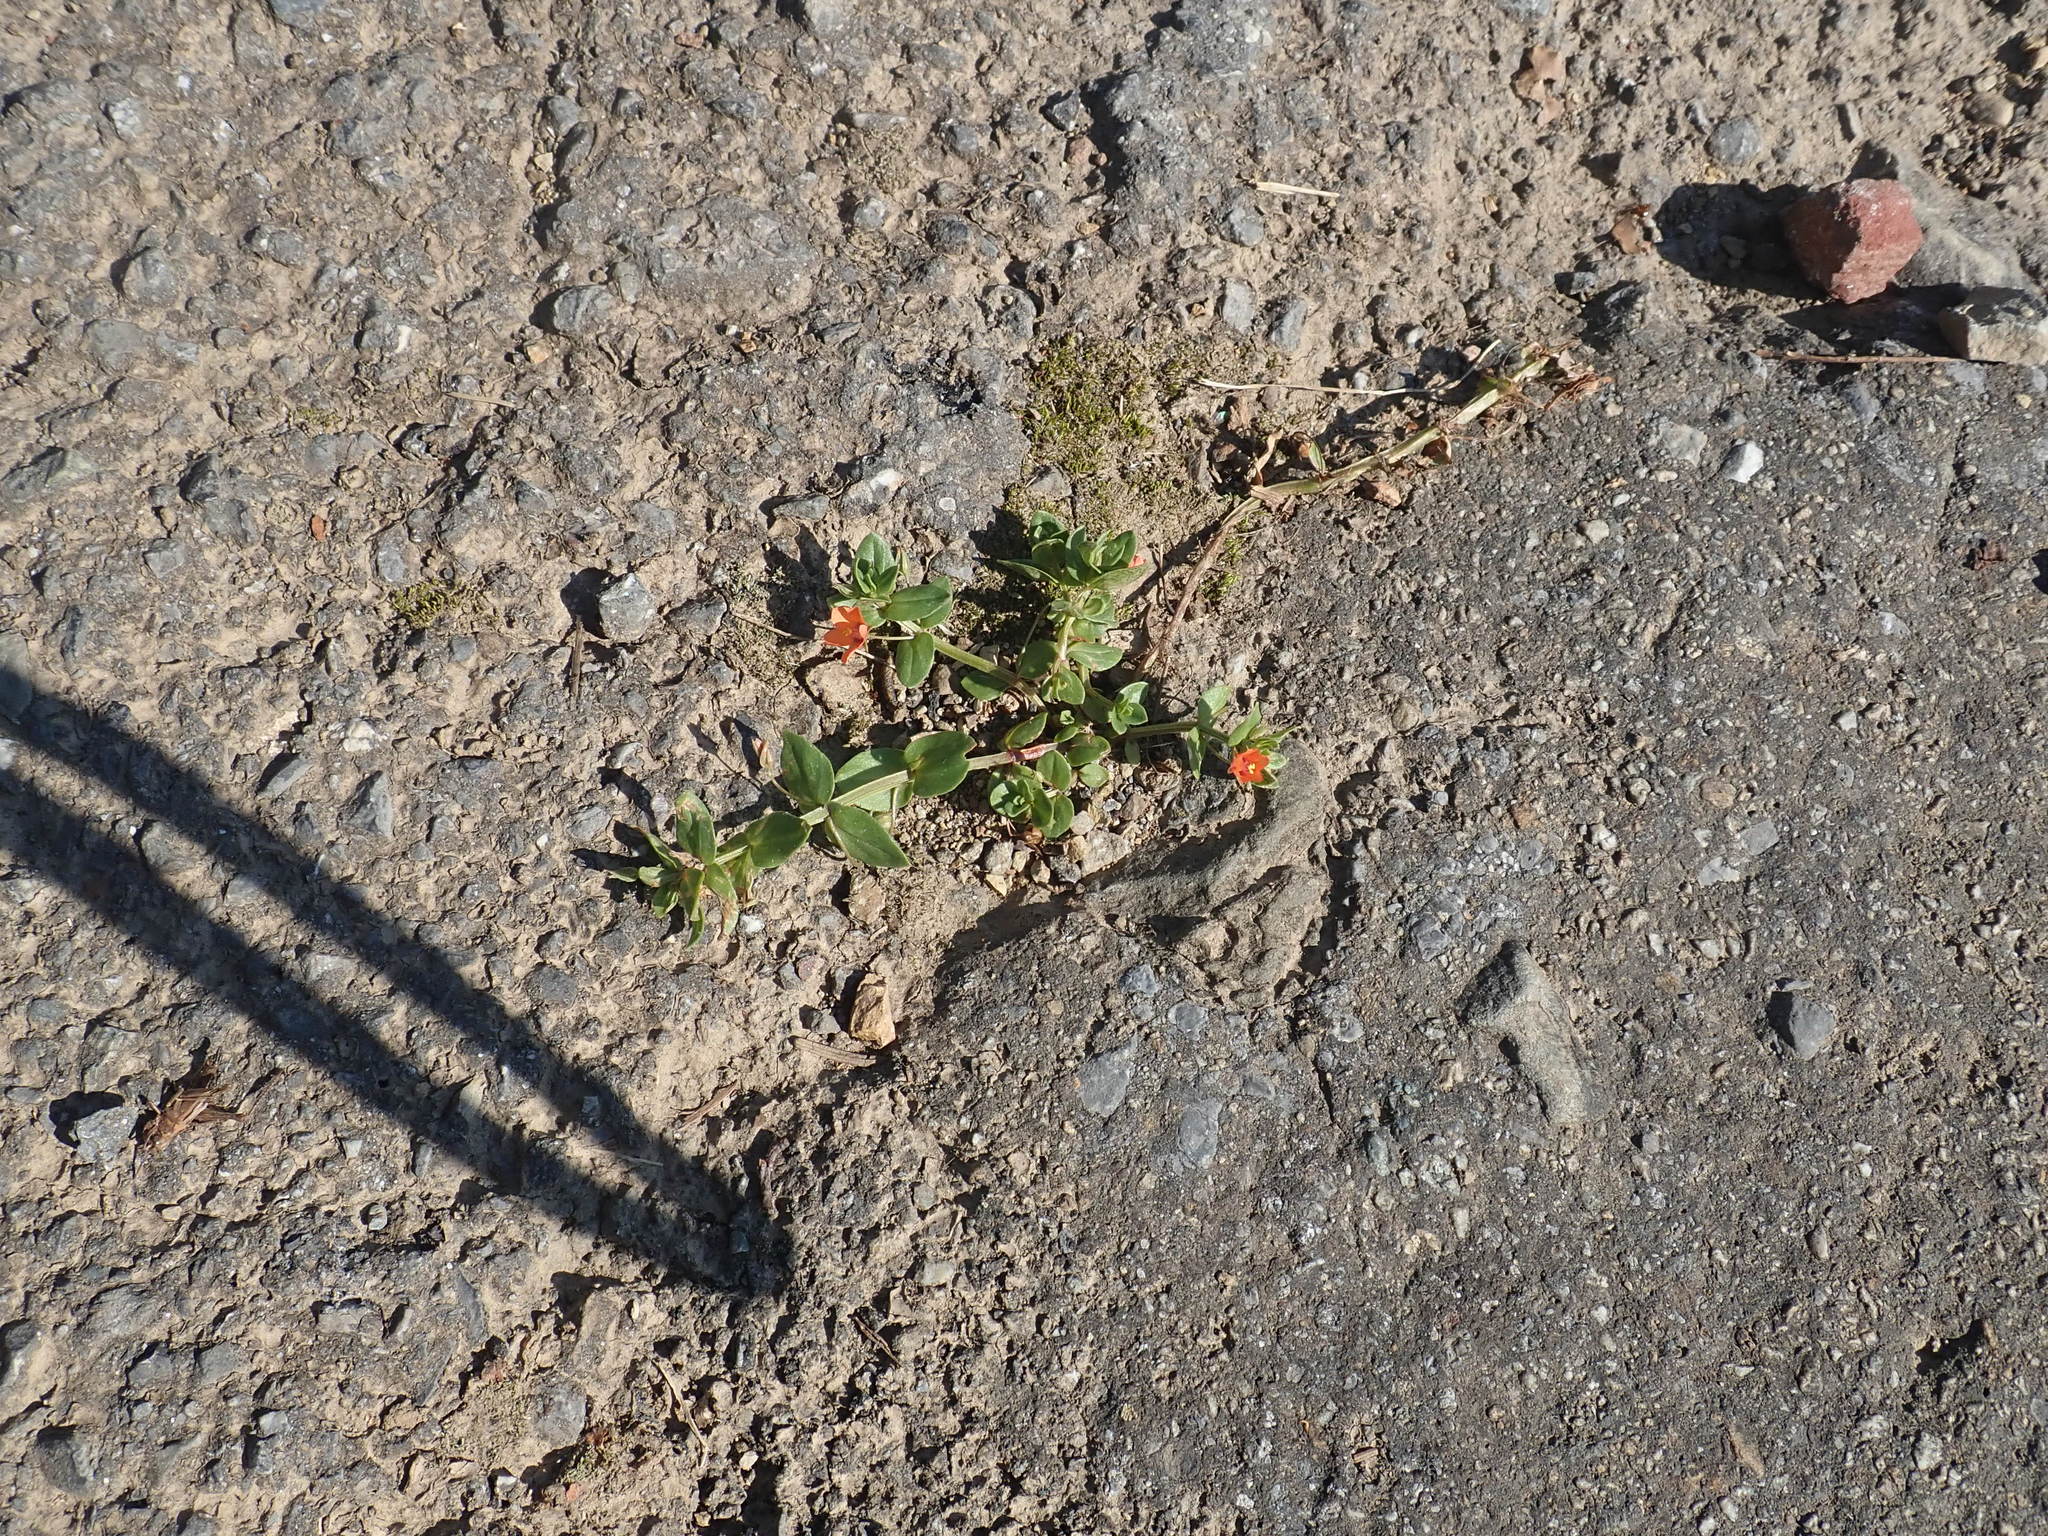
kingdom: Plantae
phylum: Tracheophyta
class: Magnoliopsida
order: Ericales
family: Primulaceae
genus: Lysimachia
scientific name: Lysimachia arvensis
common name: Scarlet pimpernel
